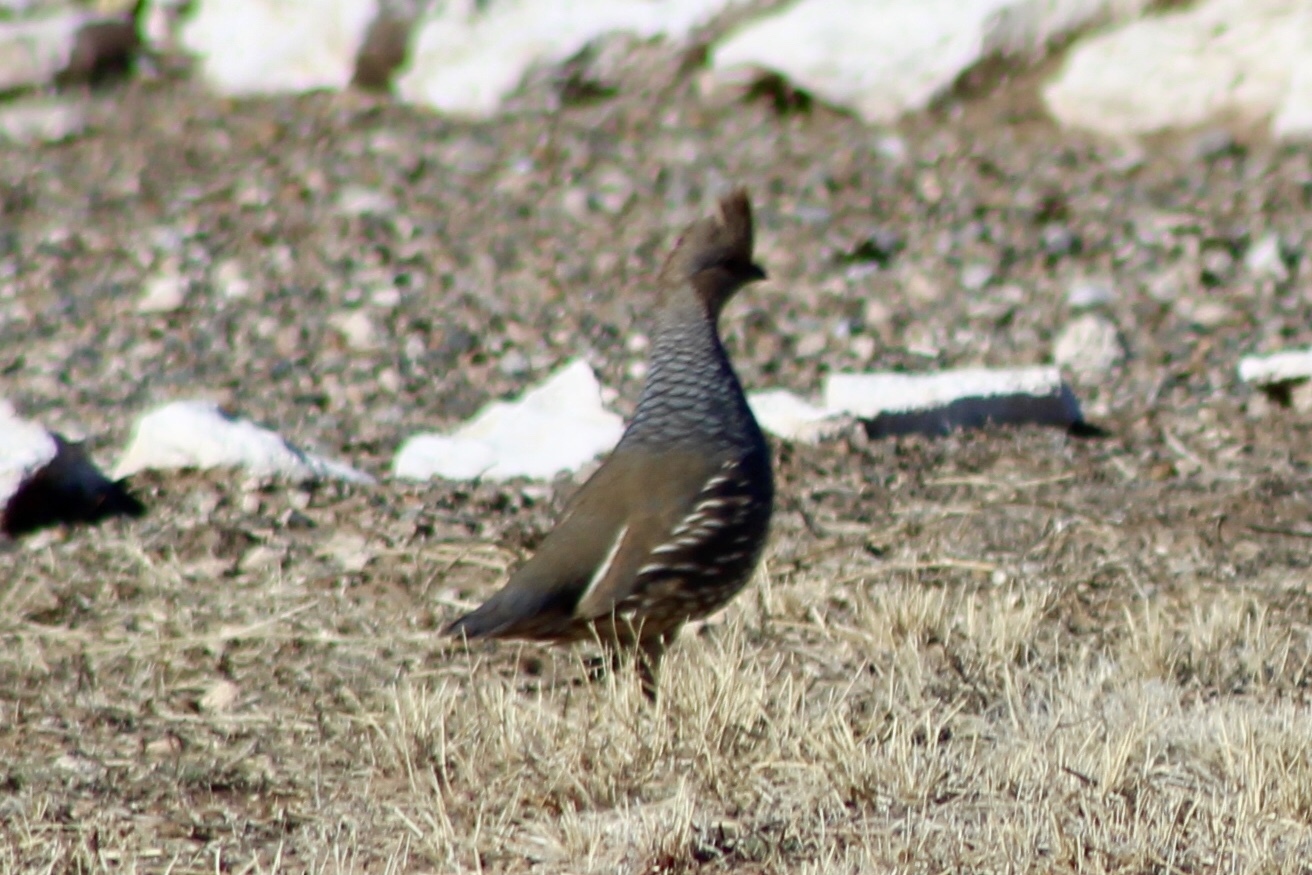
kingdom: Animalia
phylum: Chordata
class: Aves
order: Galliformes
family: Odontophoridae
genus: Callipepla
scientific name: Callipepla squamata
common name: Scaled quail
